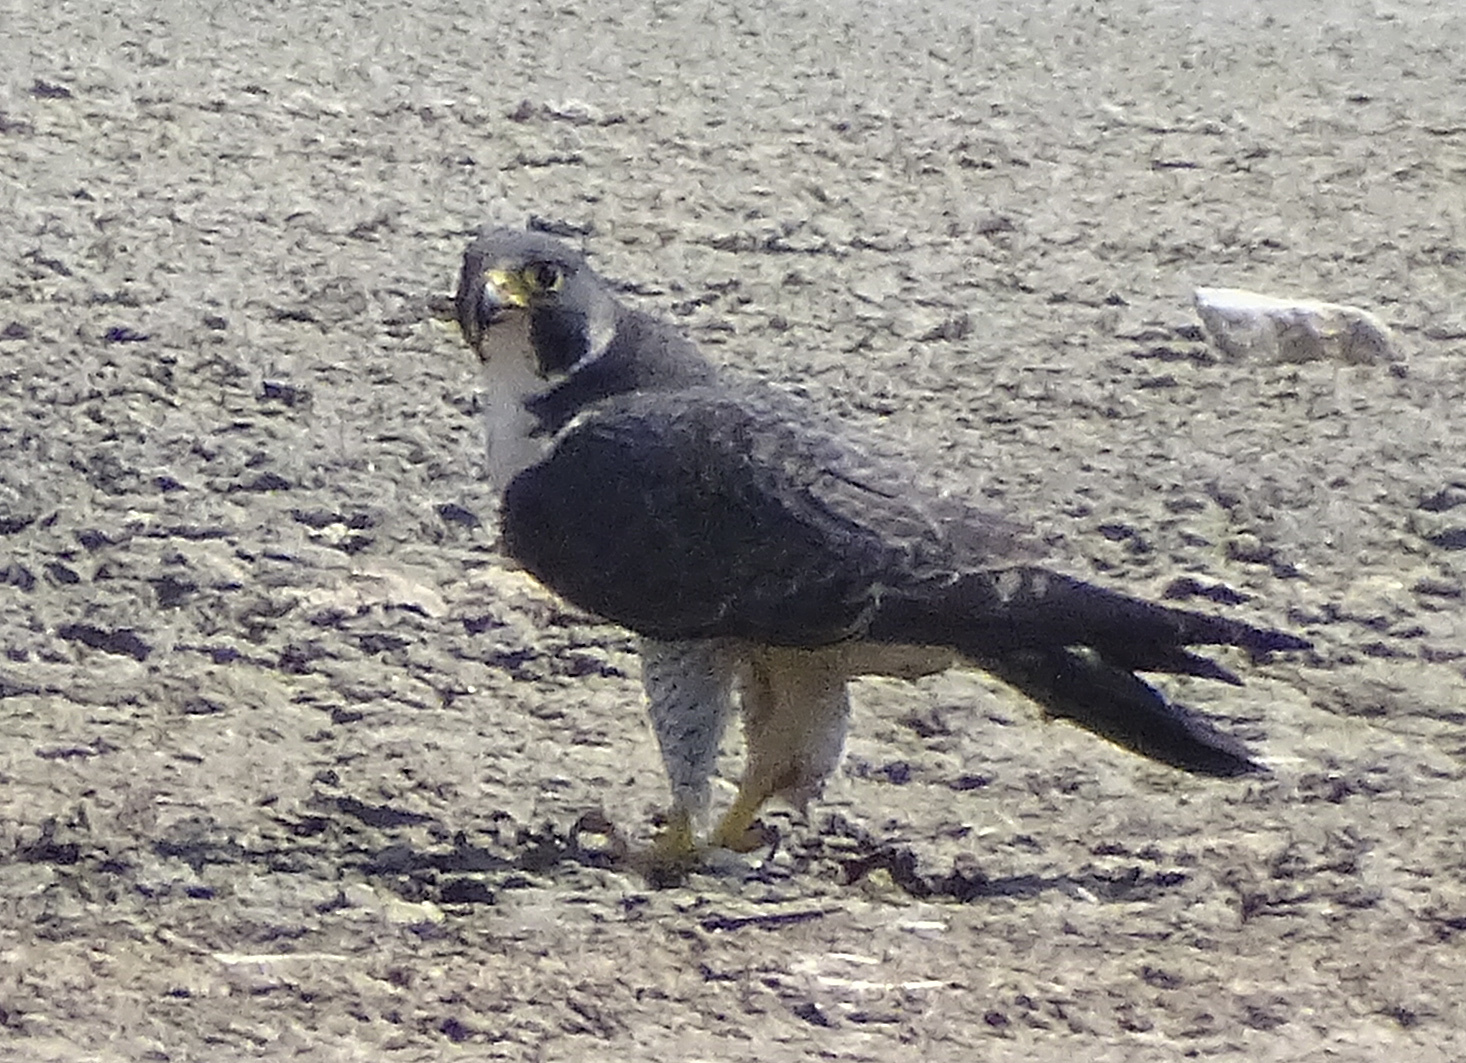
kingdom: Animalia
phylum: Chordata
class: Aves
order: Falconiformes
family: Falconidae
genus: Falco
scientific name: Falco peregrinus
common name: Peregrine falcon
